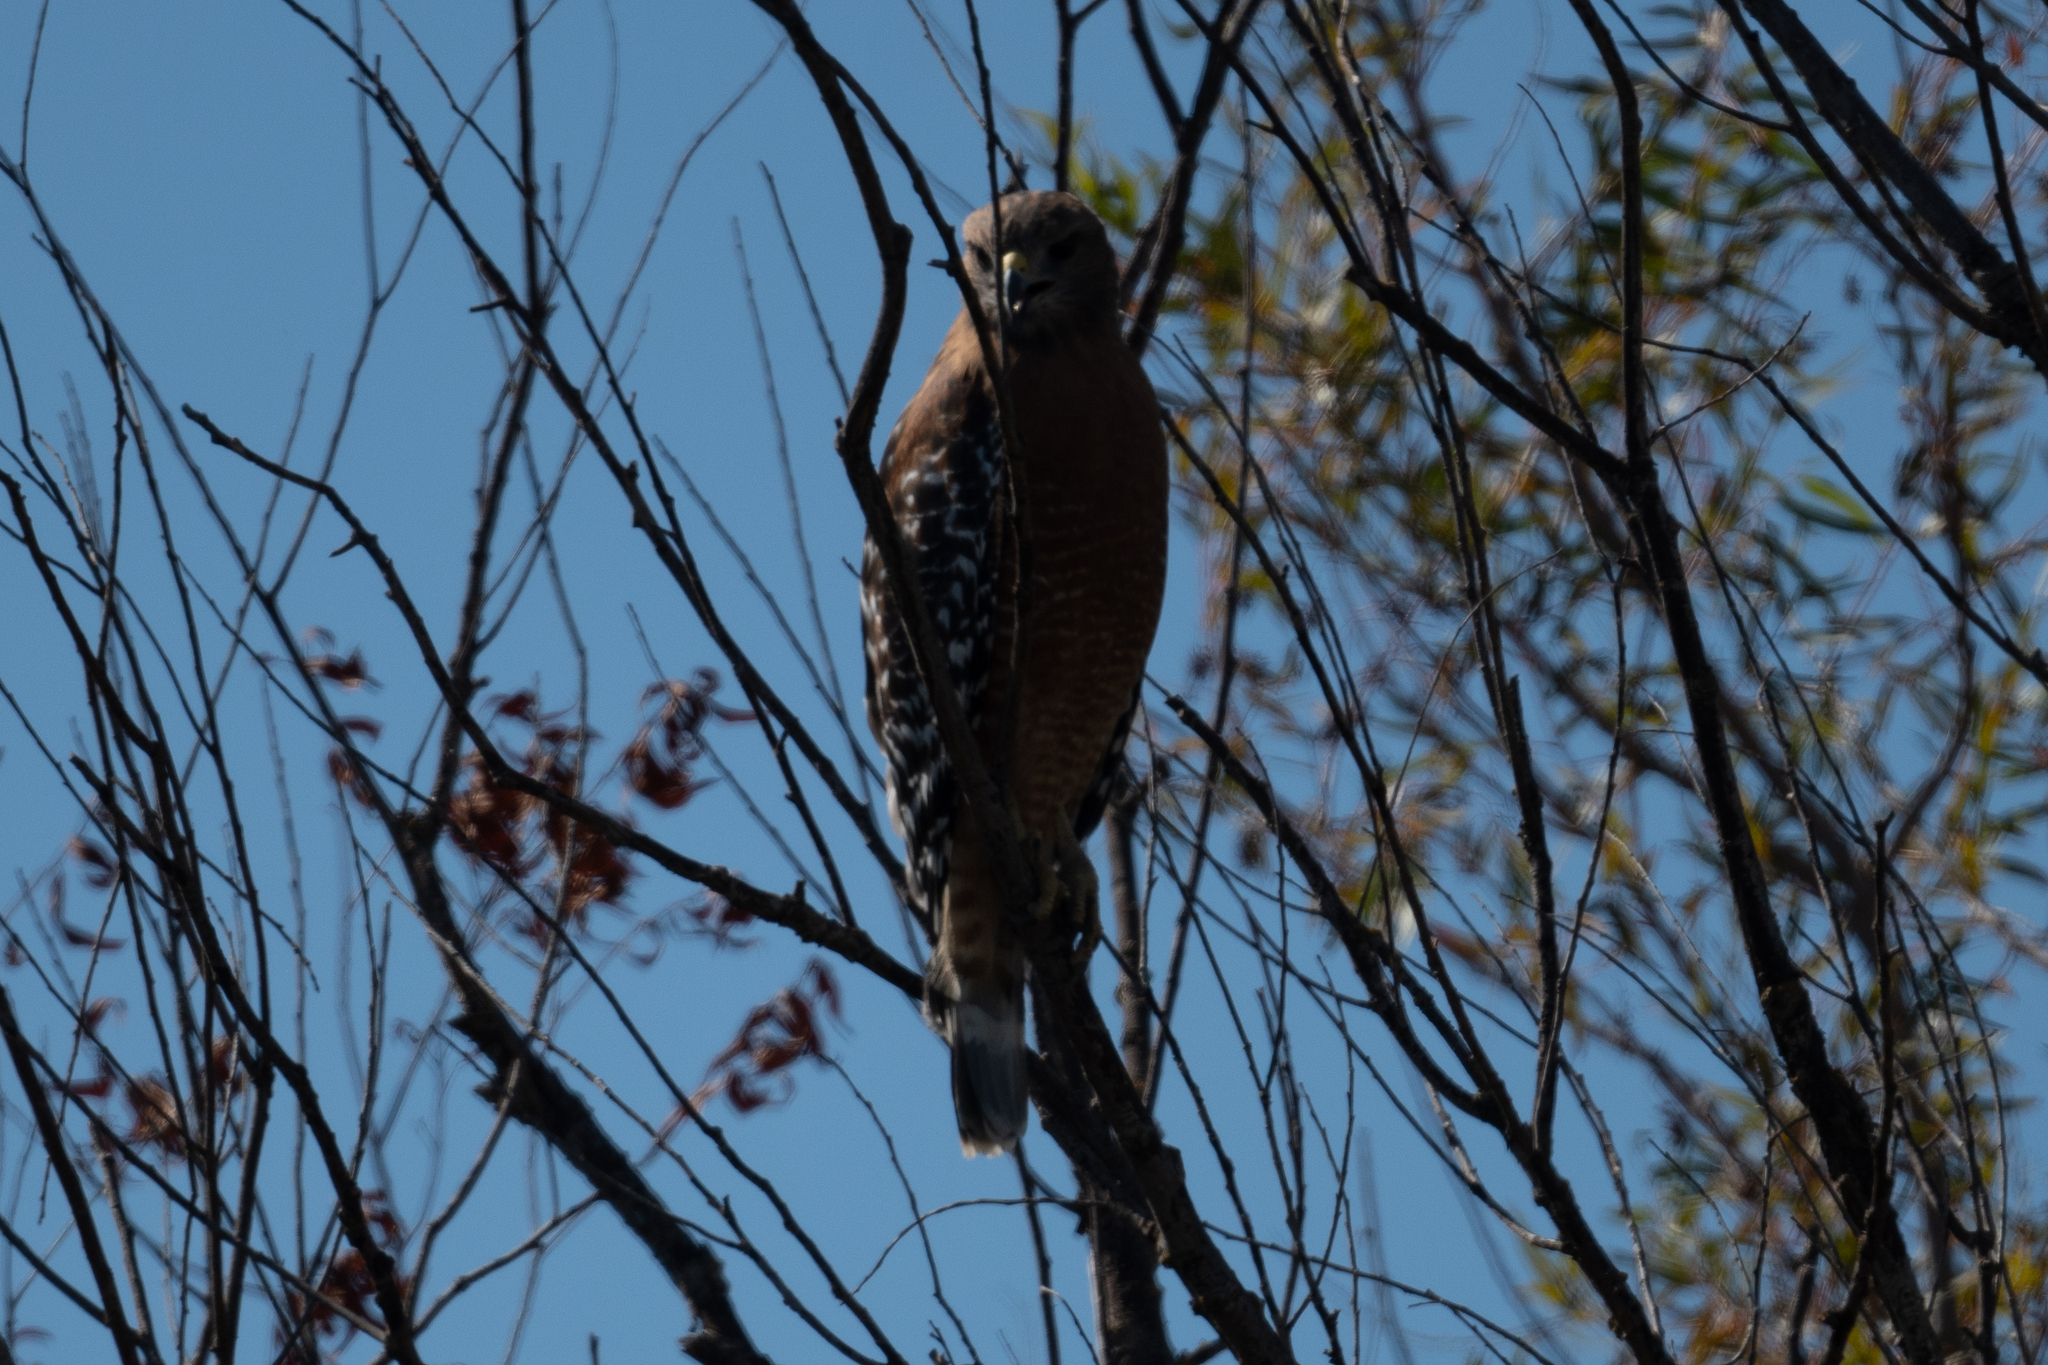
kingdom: Animalia
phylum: Chordata
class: Aves
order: Accipitriformes
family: Accipitridae
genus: Buteo
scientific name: Buteo lineatus
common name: Red-shouldered hawk
